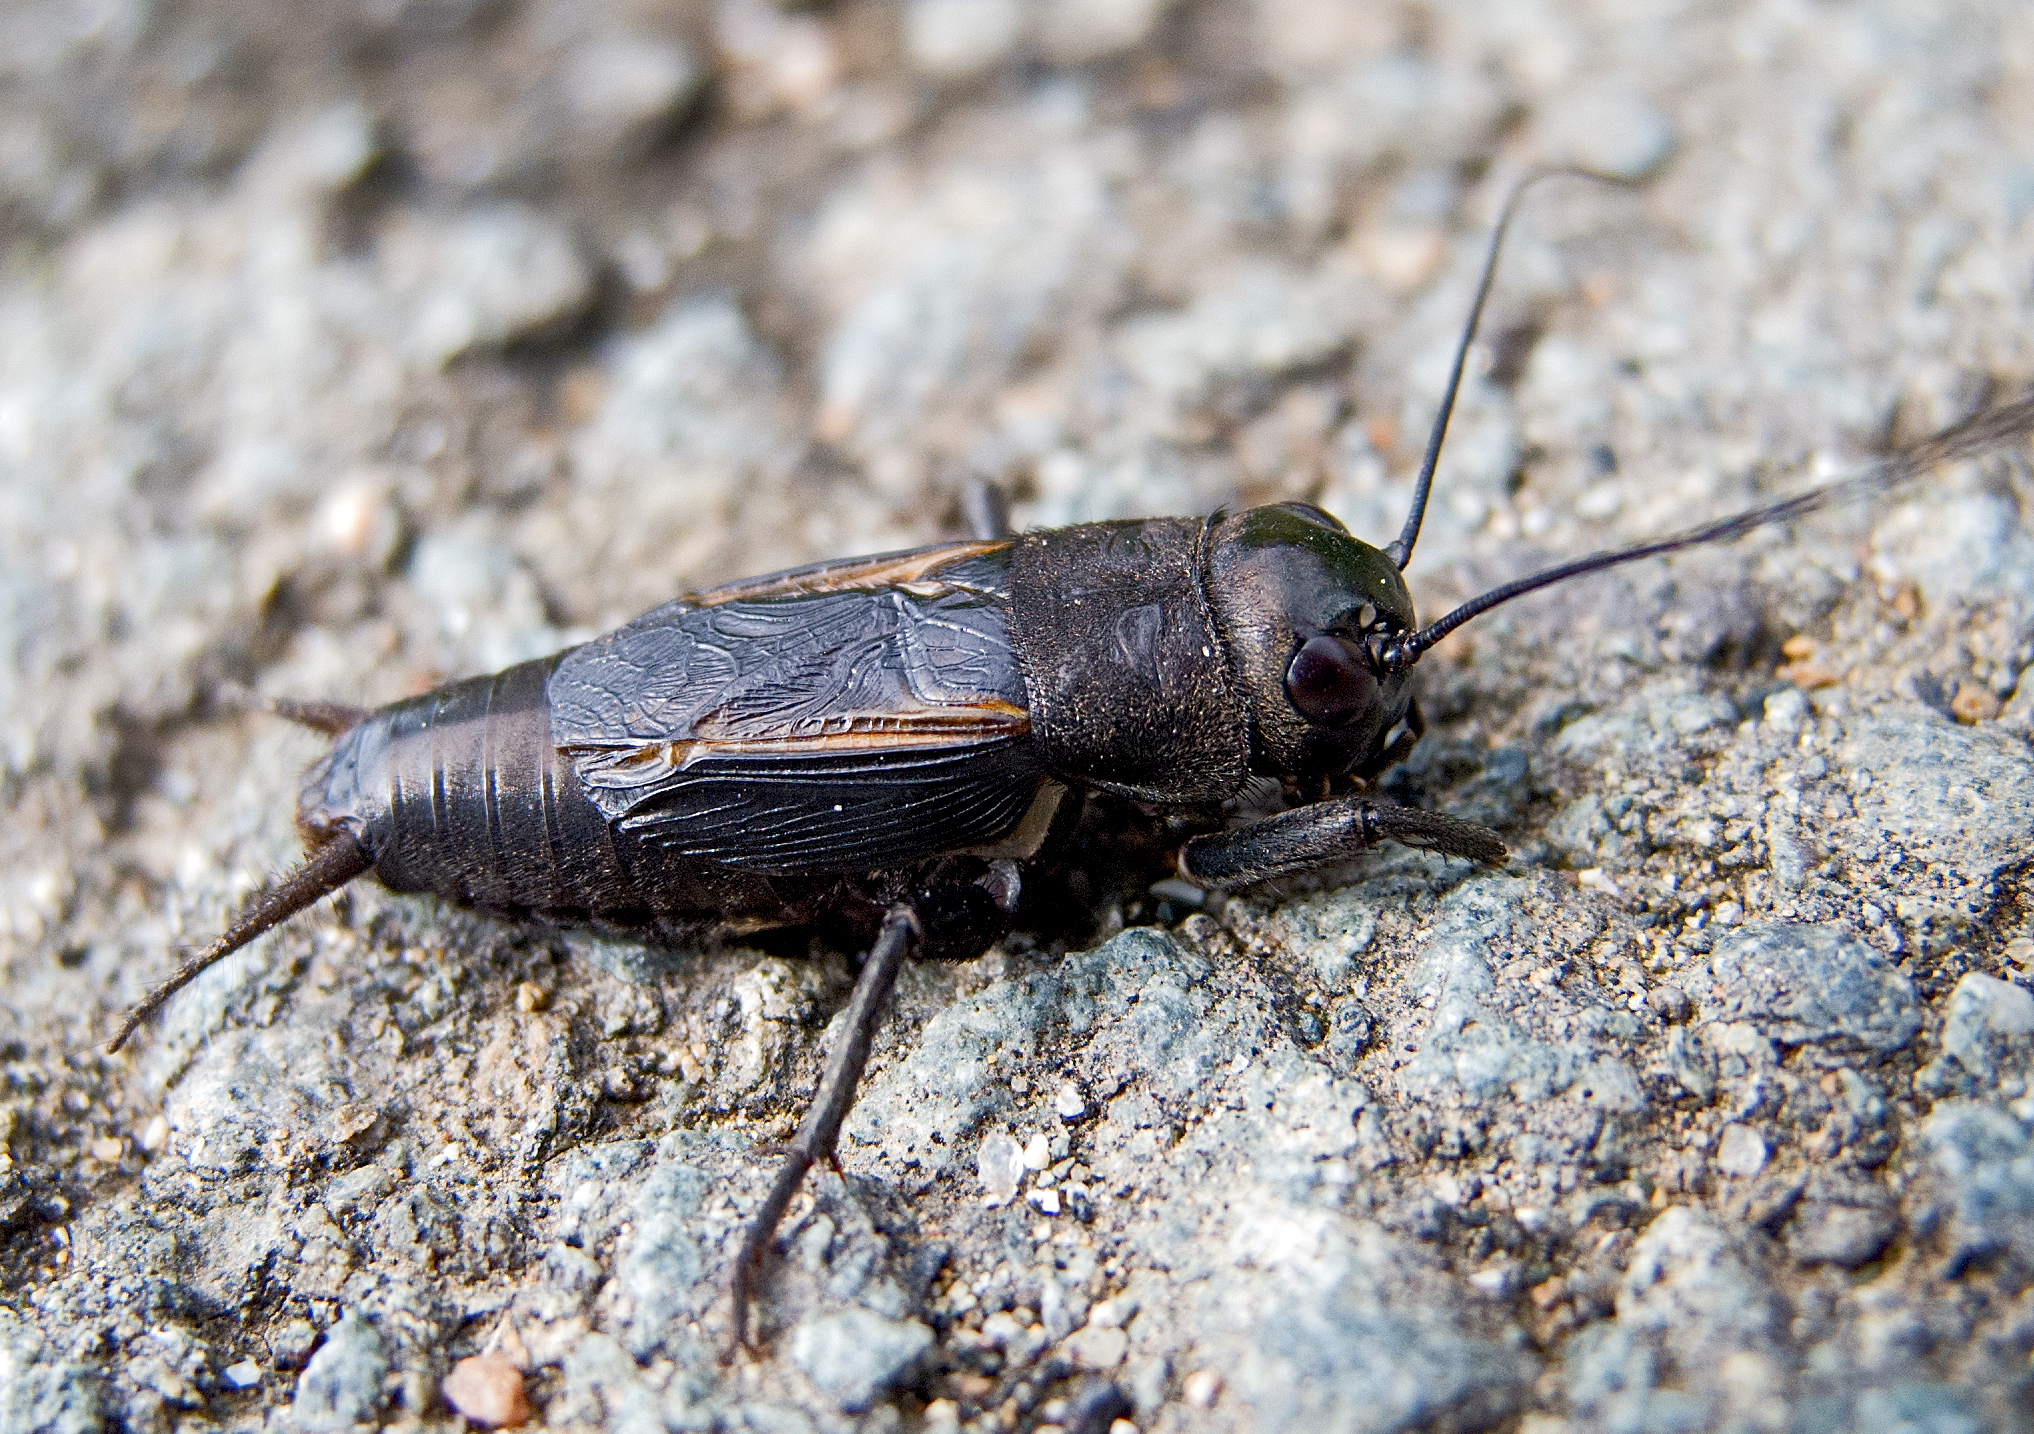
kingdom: Animalia
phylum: Arthropoda
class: Insecta
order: Orthoptera
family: Gryllidae
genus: Gryllus
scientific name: Gryllus campestris
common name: Field cricket
